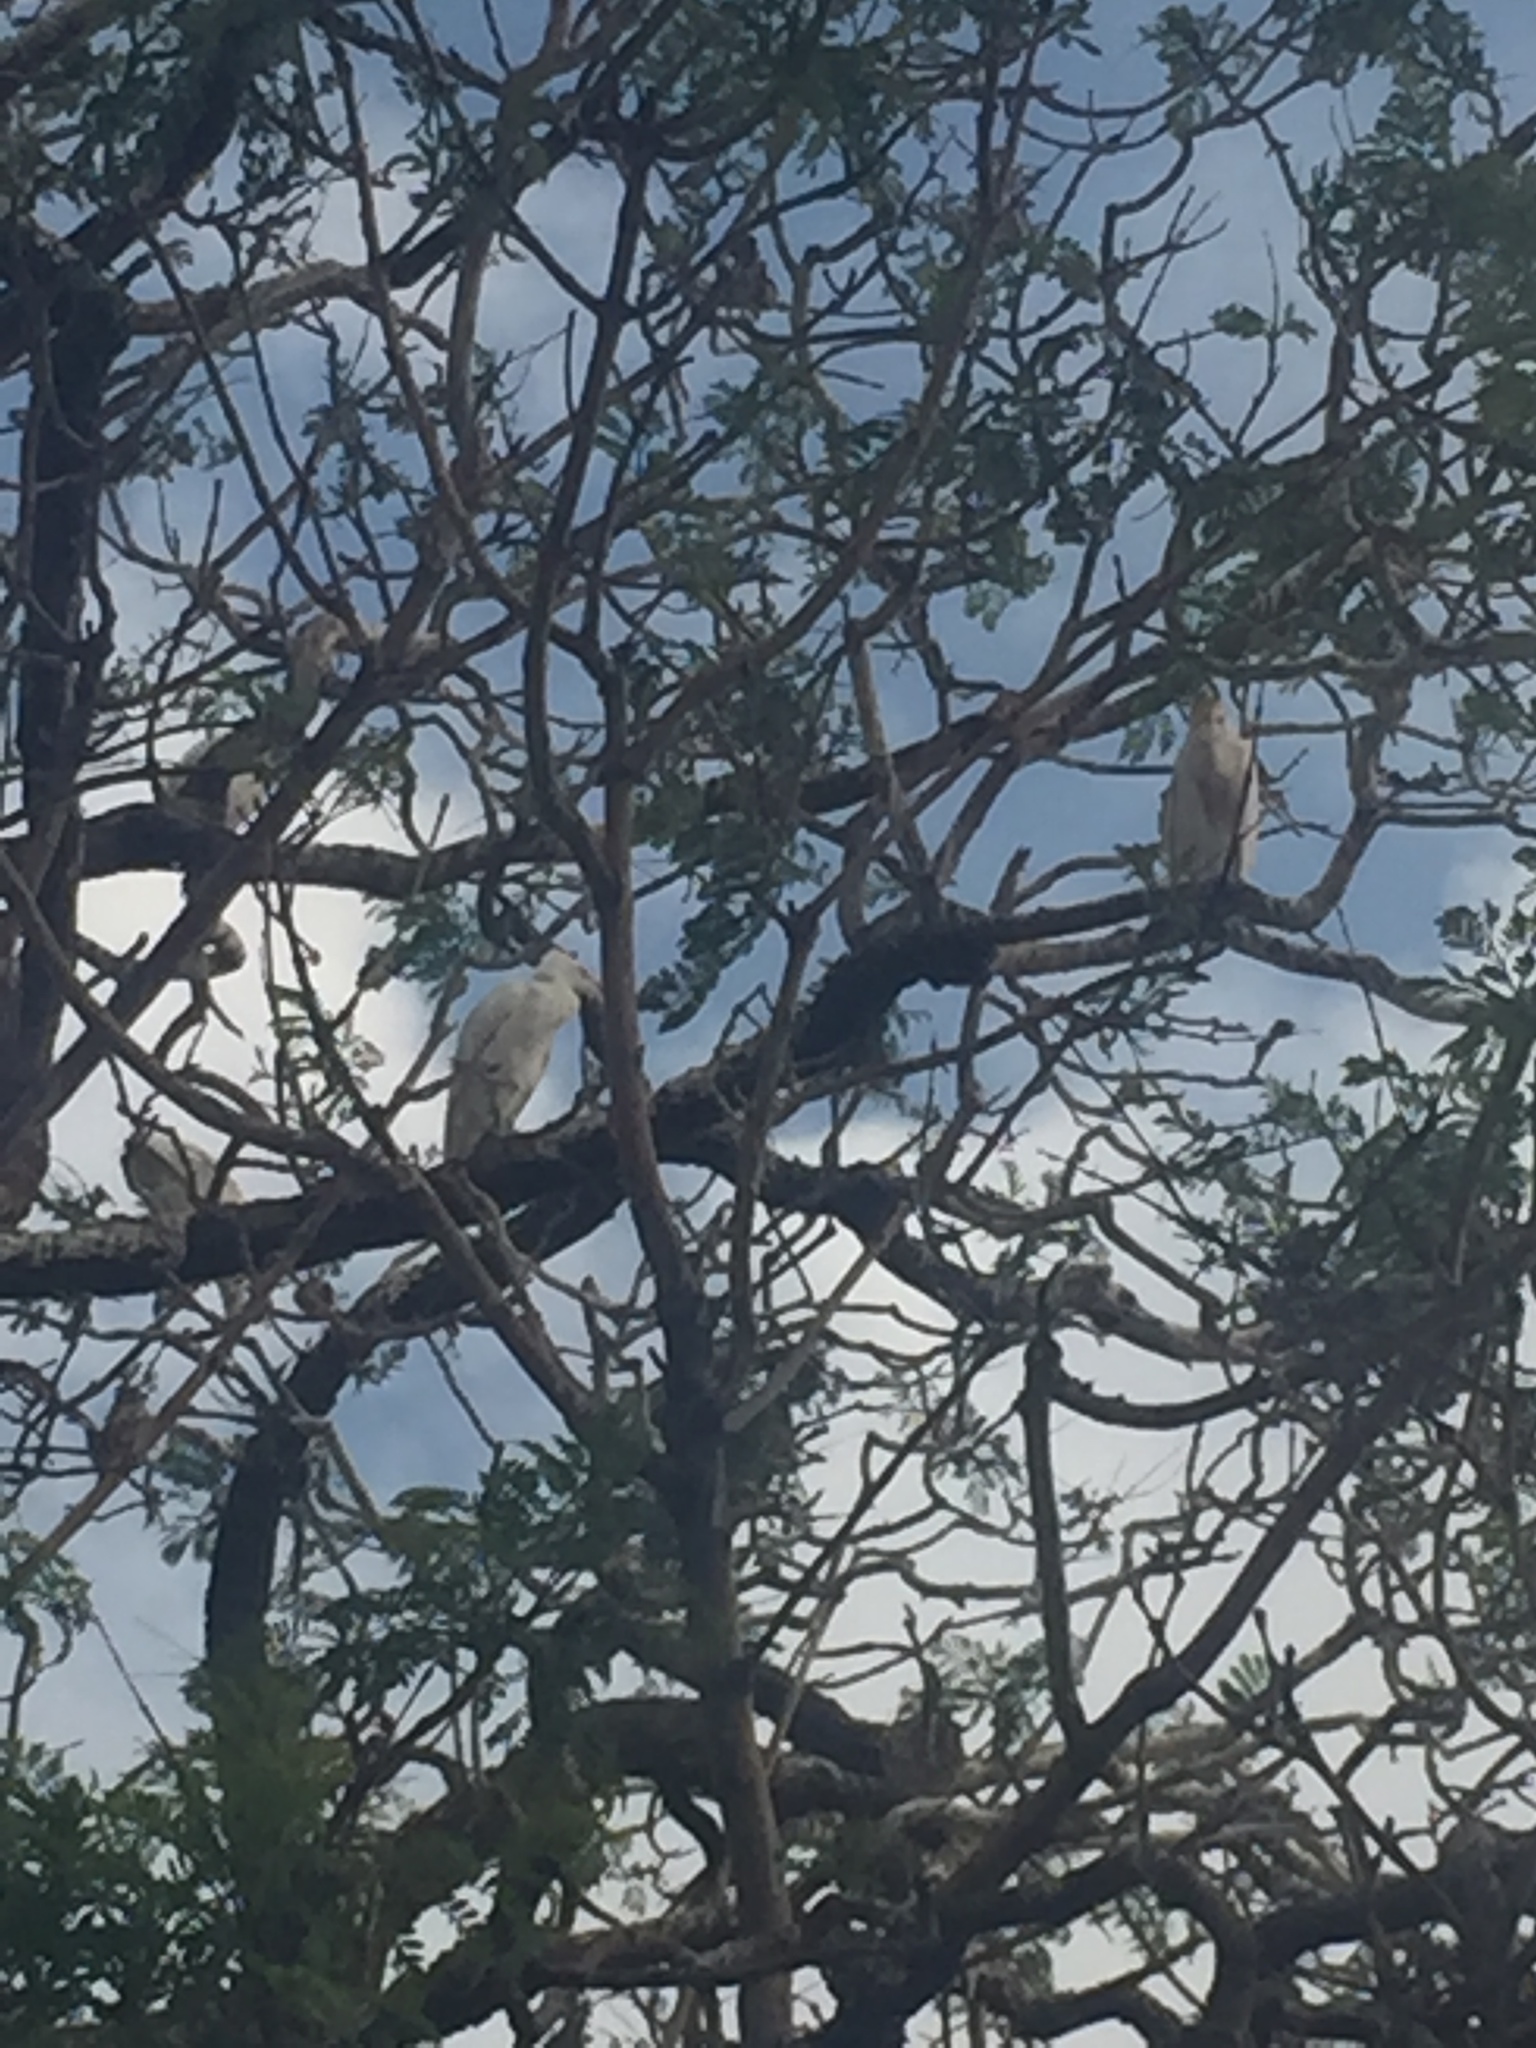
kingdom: Animalia
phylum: Chordata
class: Aves
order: Pelecaniformes
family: Ardeidae
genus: Bubulcus
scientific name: Bubulcus ibis
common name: Cattle egret
